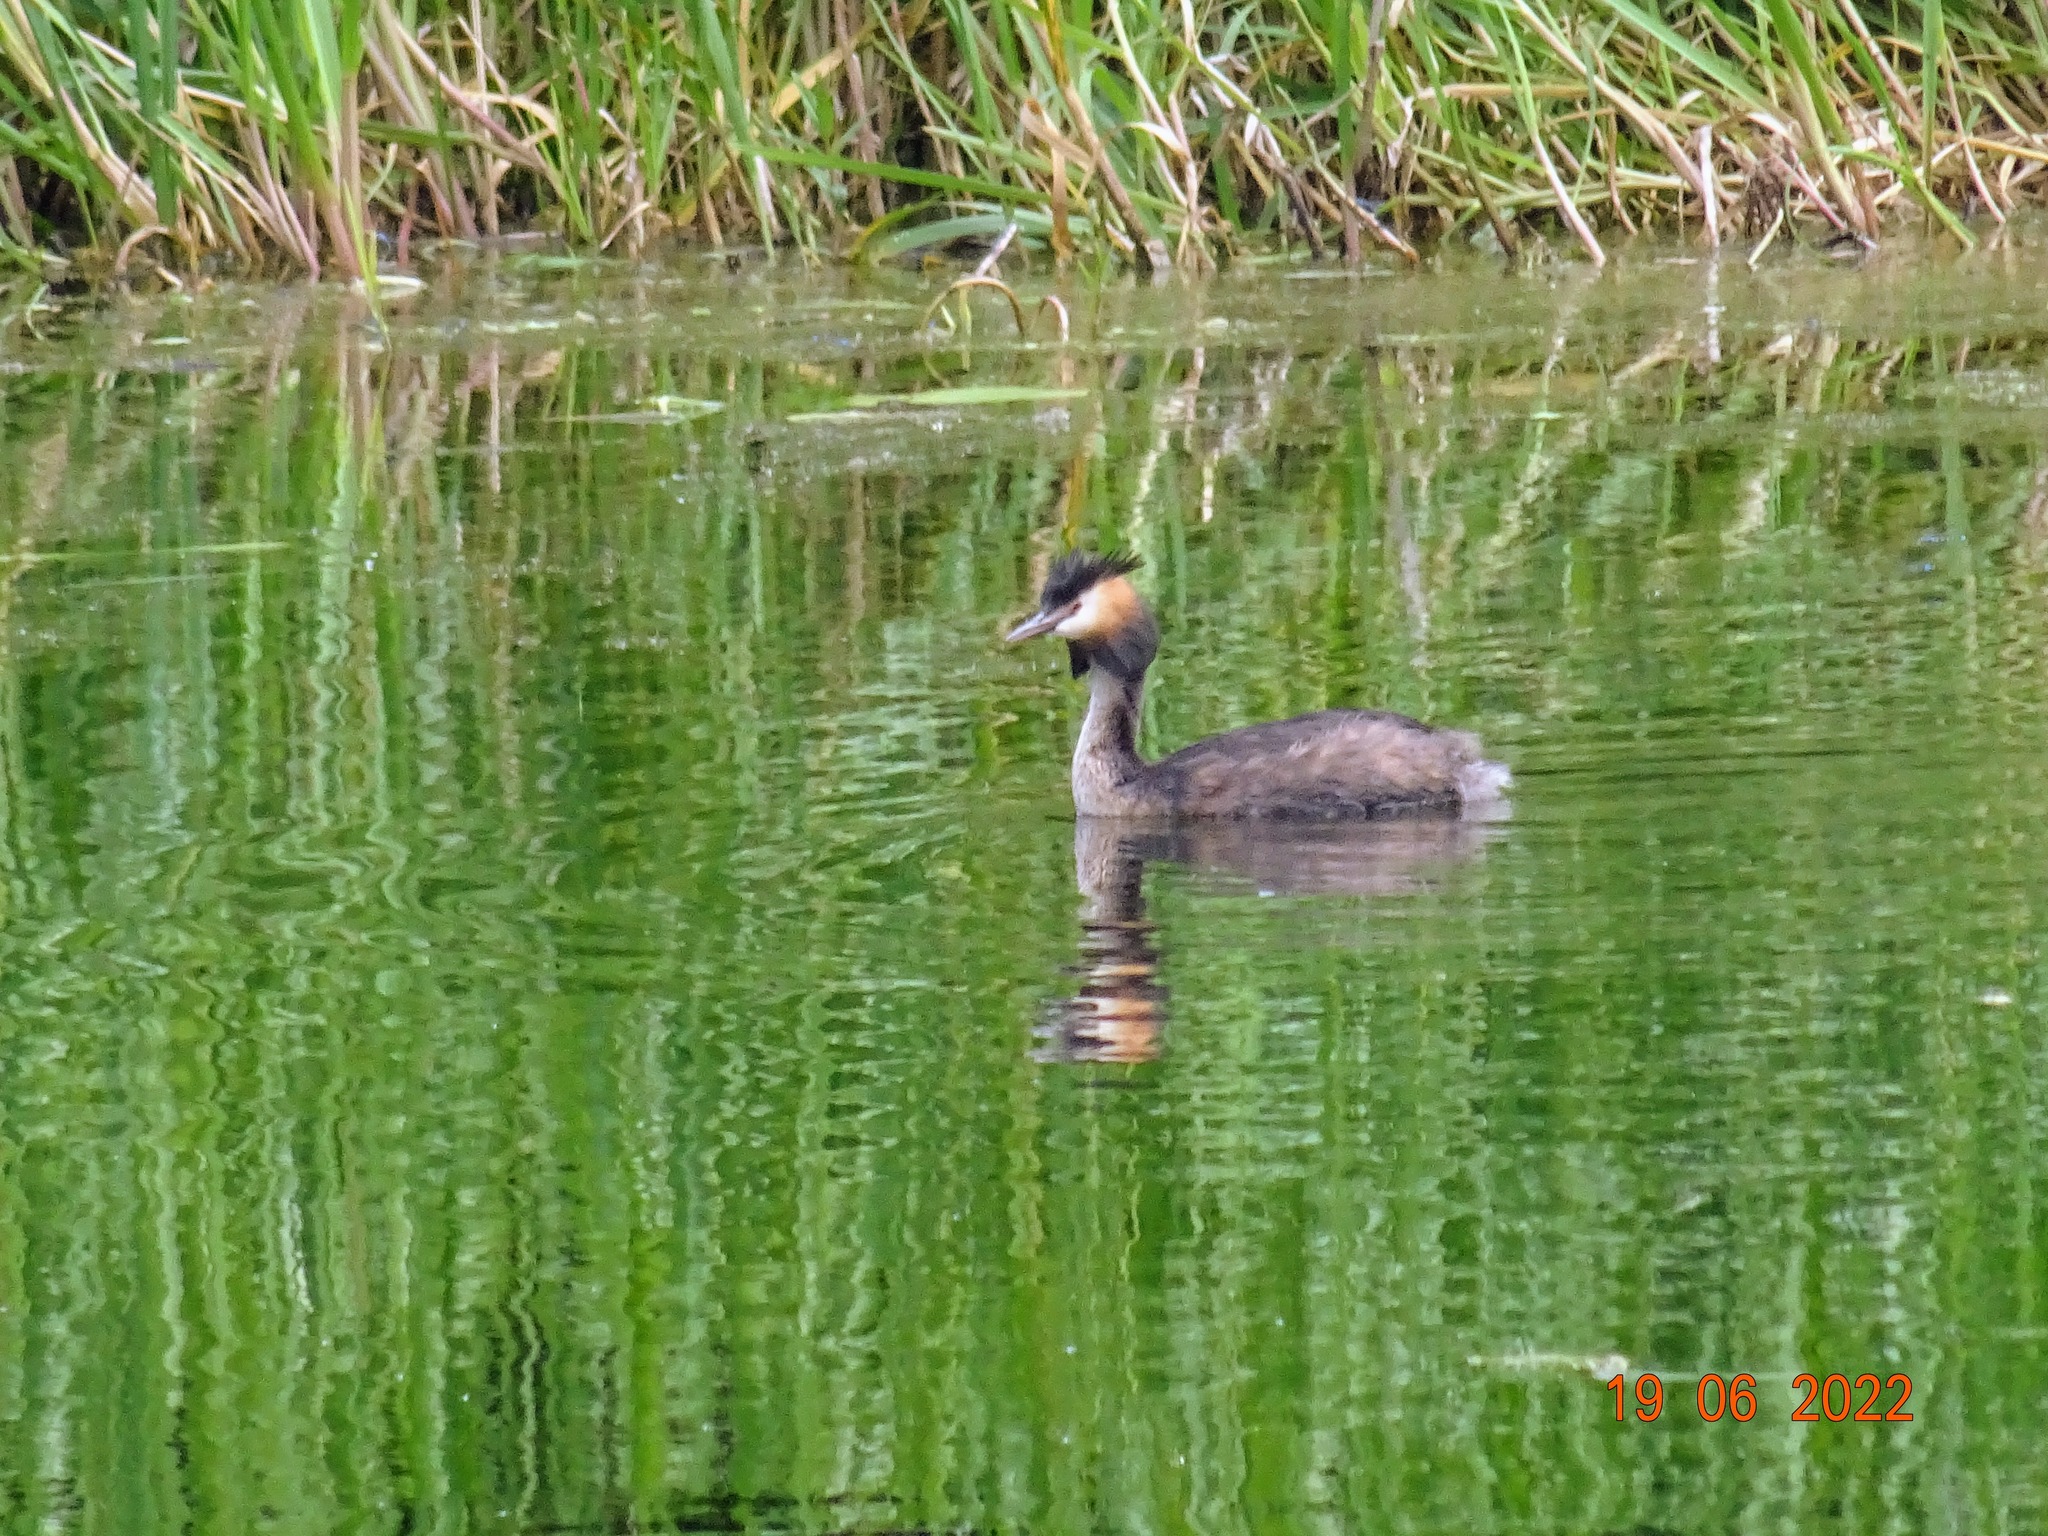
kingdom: Animalia
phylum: Chordata
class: Aves
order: Podicipediformes
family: Podicipedidae
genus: Podiceps
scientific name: Podiceps cristatus
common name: Great crested grebe
